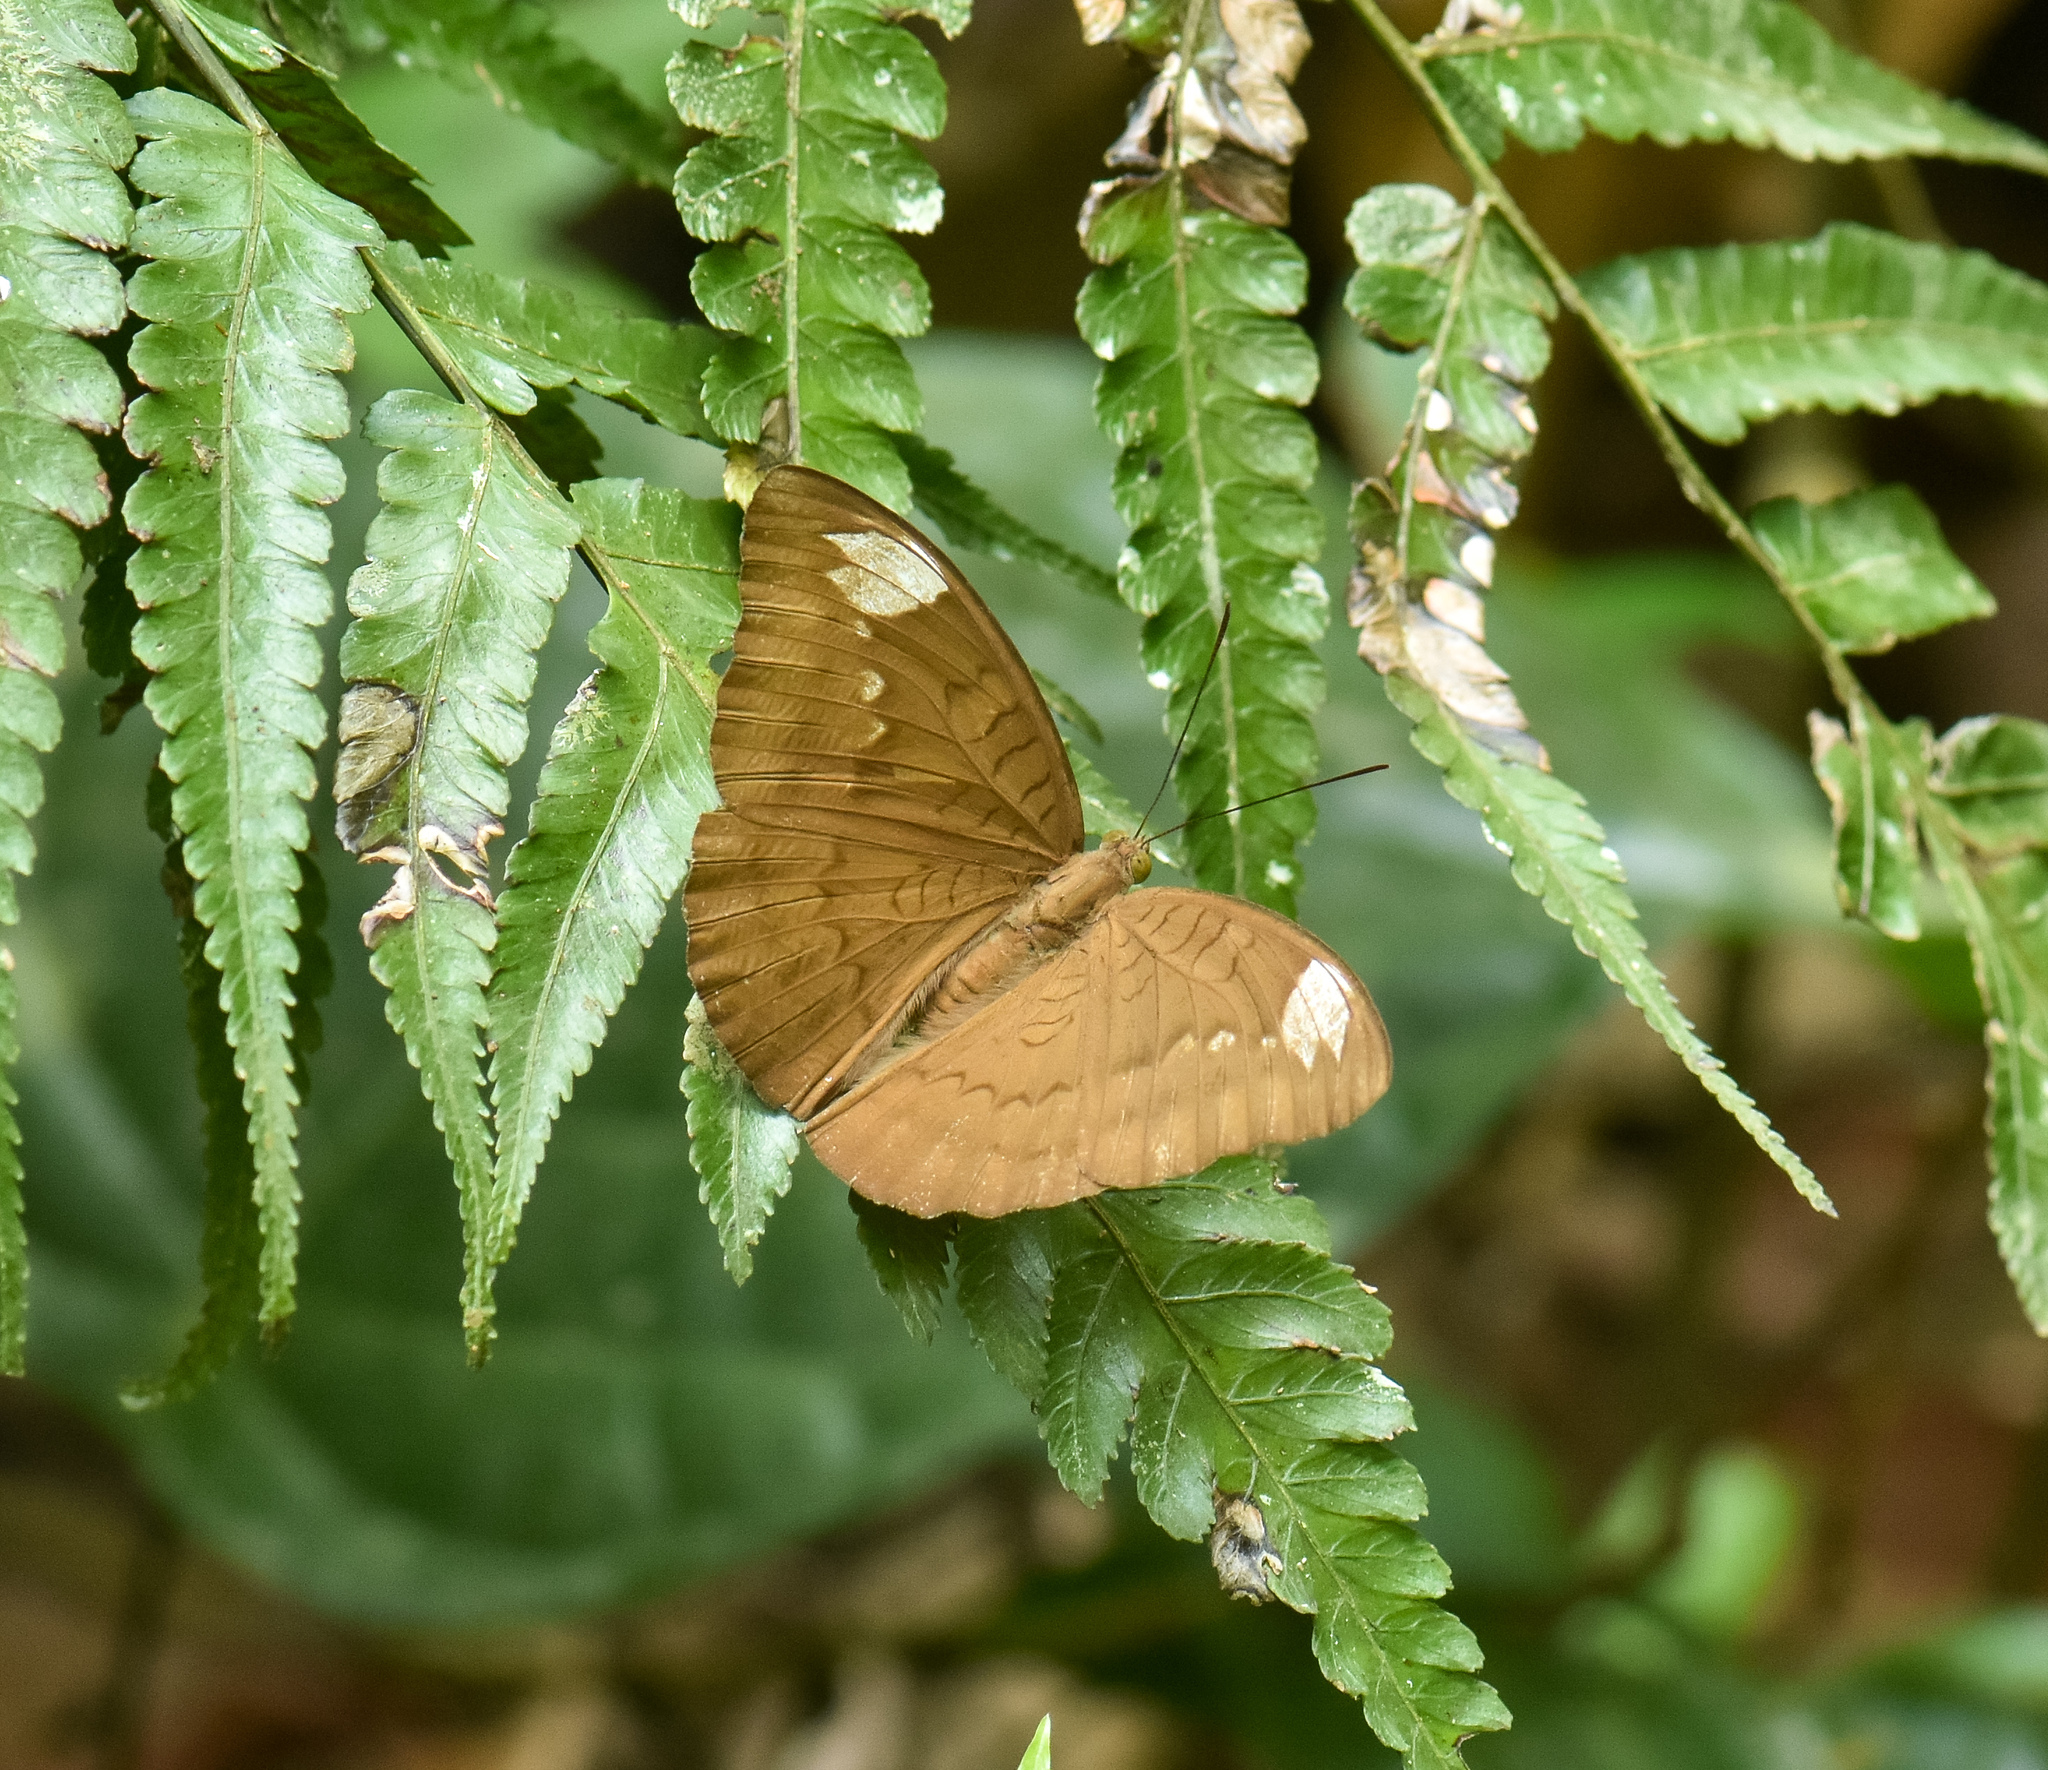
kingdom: Animalia
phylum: Arthropoda
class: Insecta
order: Lepidoptera
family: Nymphalidae
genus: Tanaecia
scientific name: Tanaecia julii
